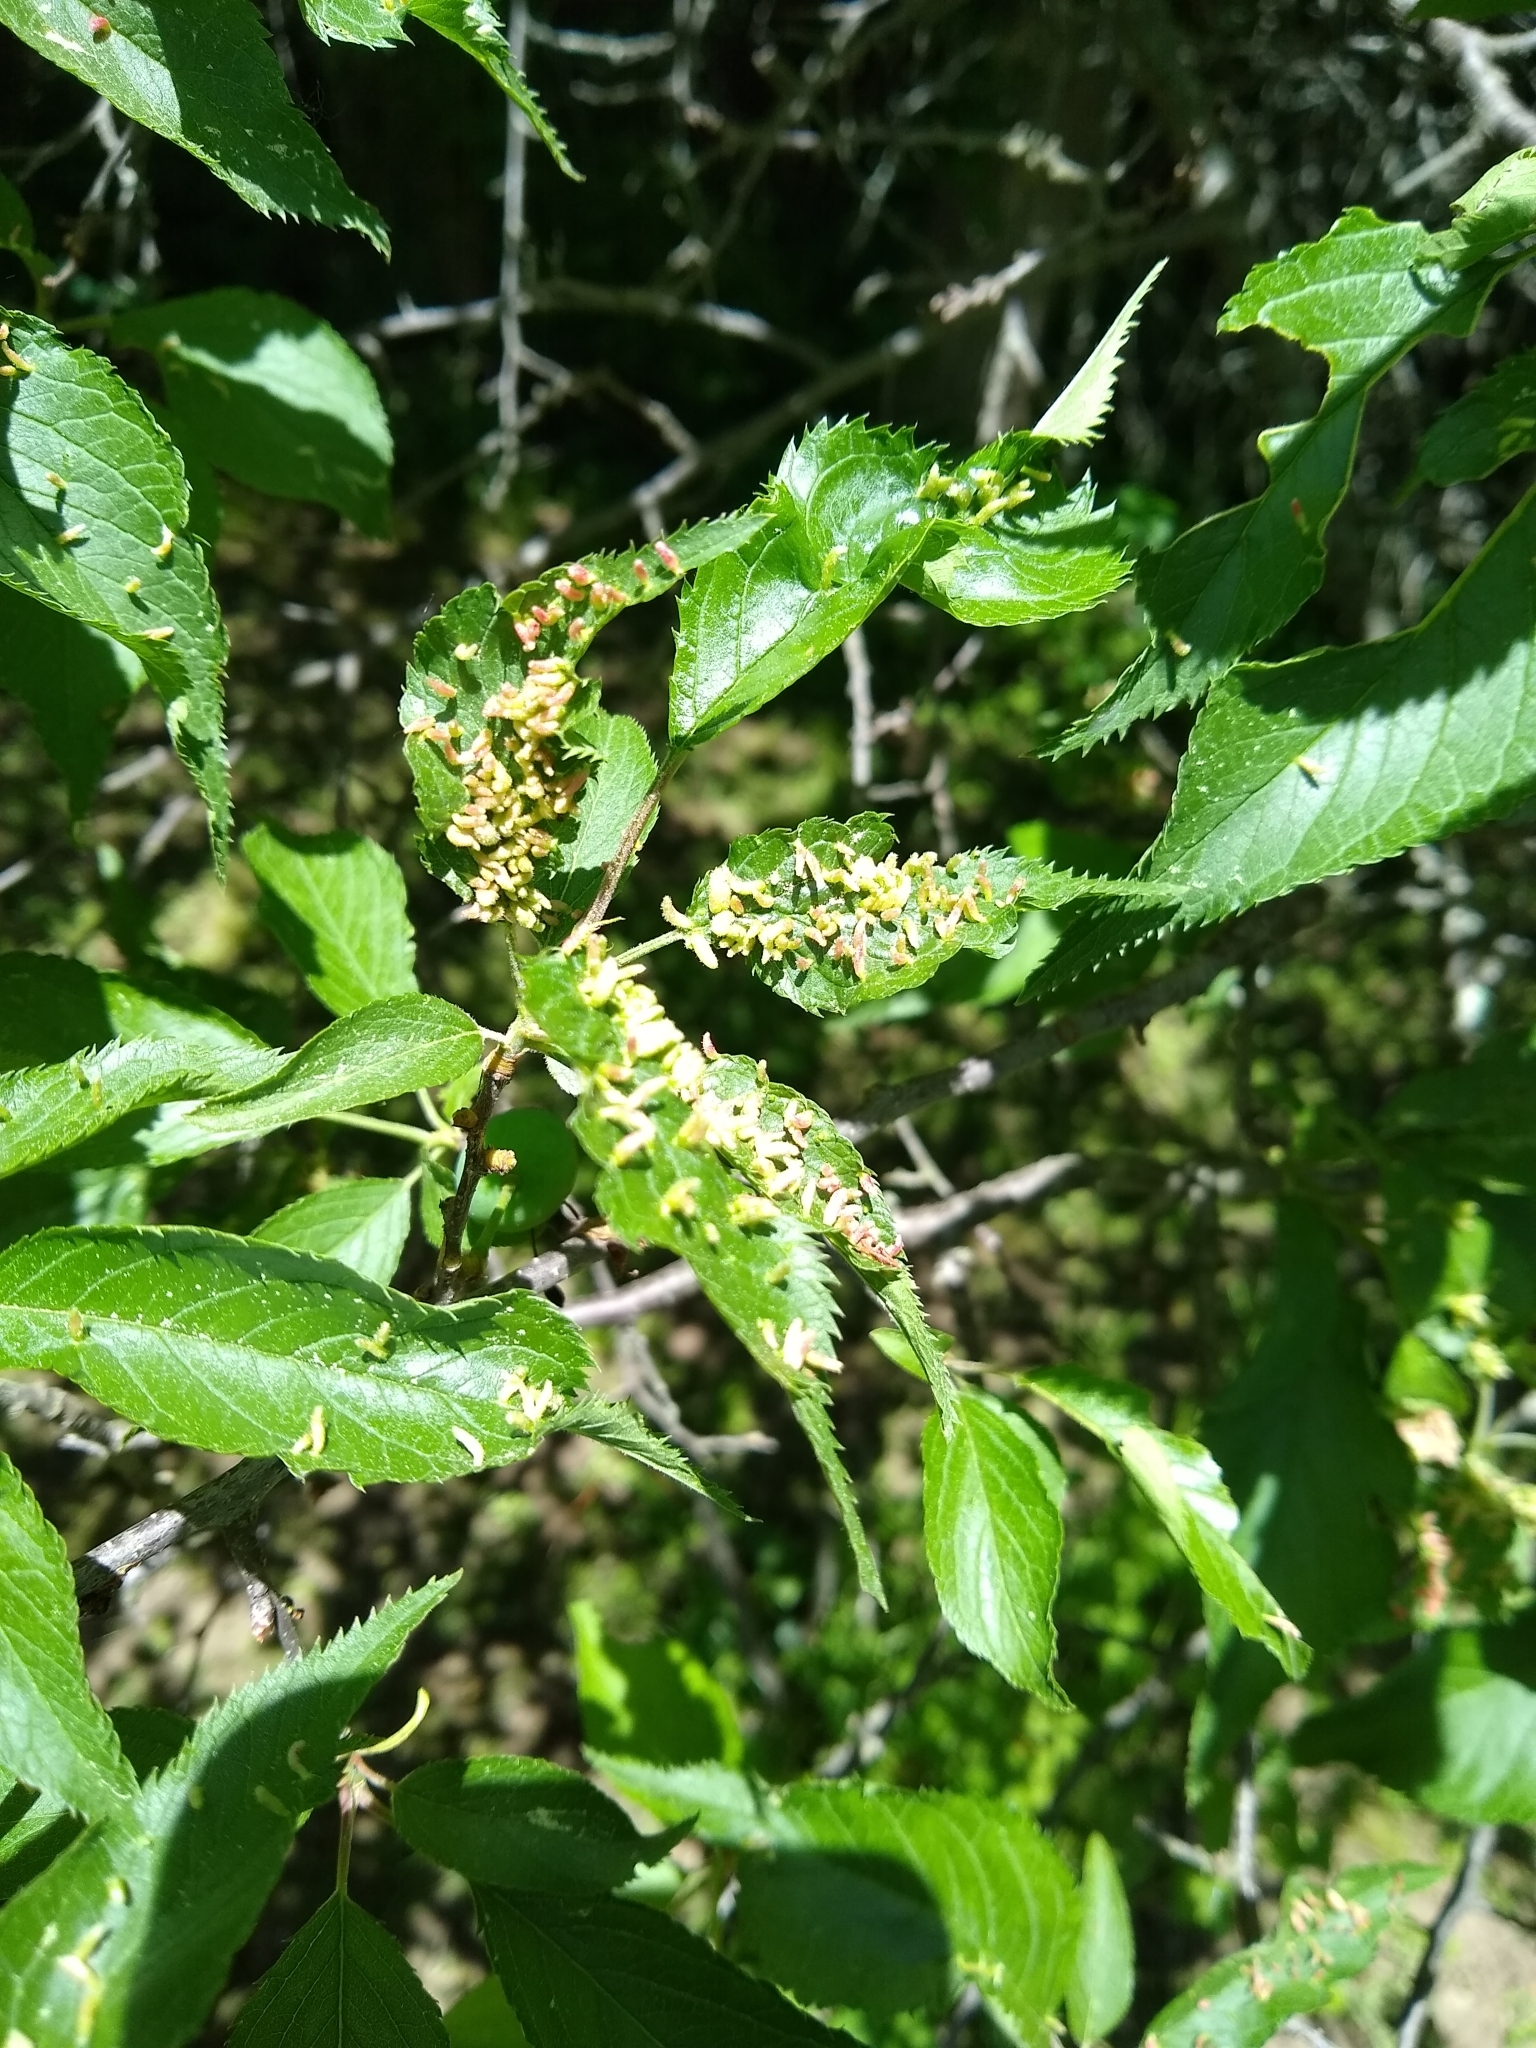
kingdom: Animalia
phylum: Arthropoda
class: Arachnida
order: Trombidiformes
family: Eriophyidae
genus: Eriophyes
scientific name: Eriophyes emarginatae
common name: Plum leaf gall mite
